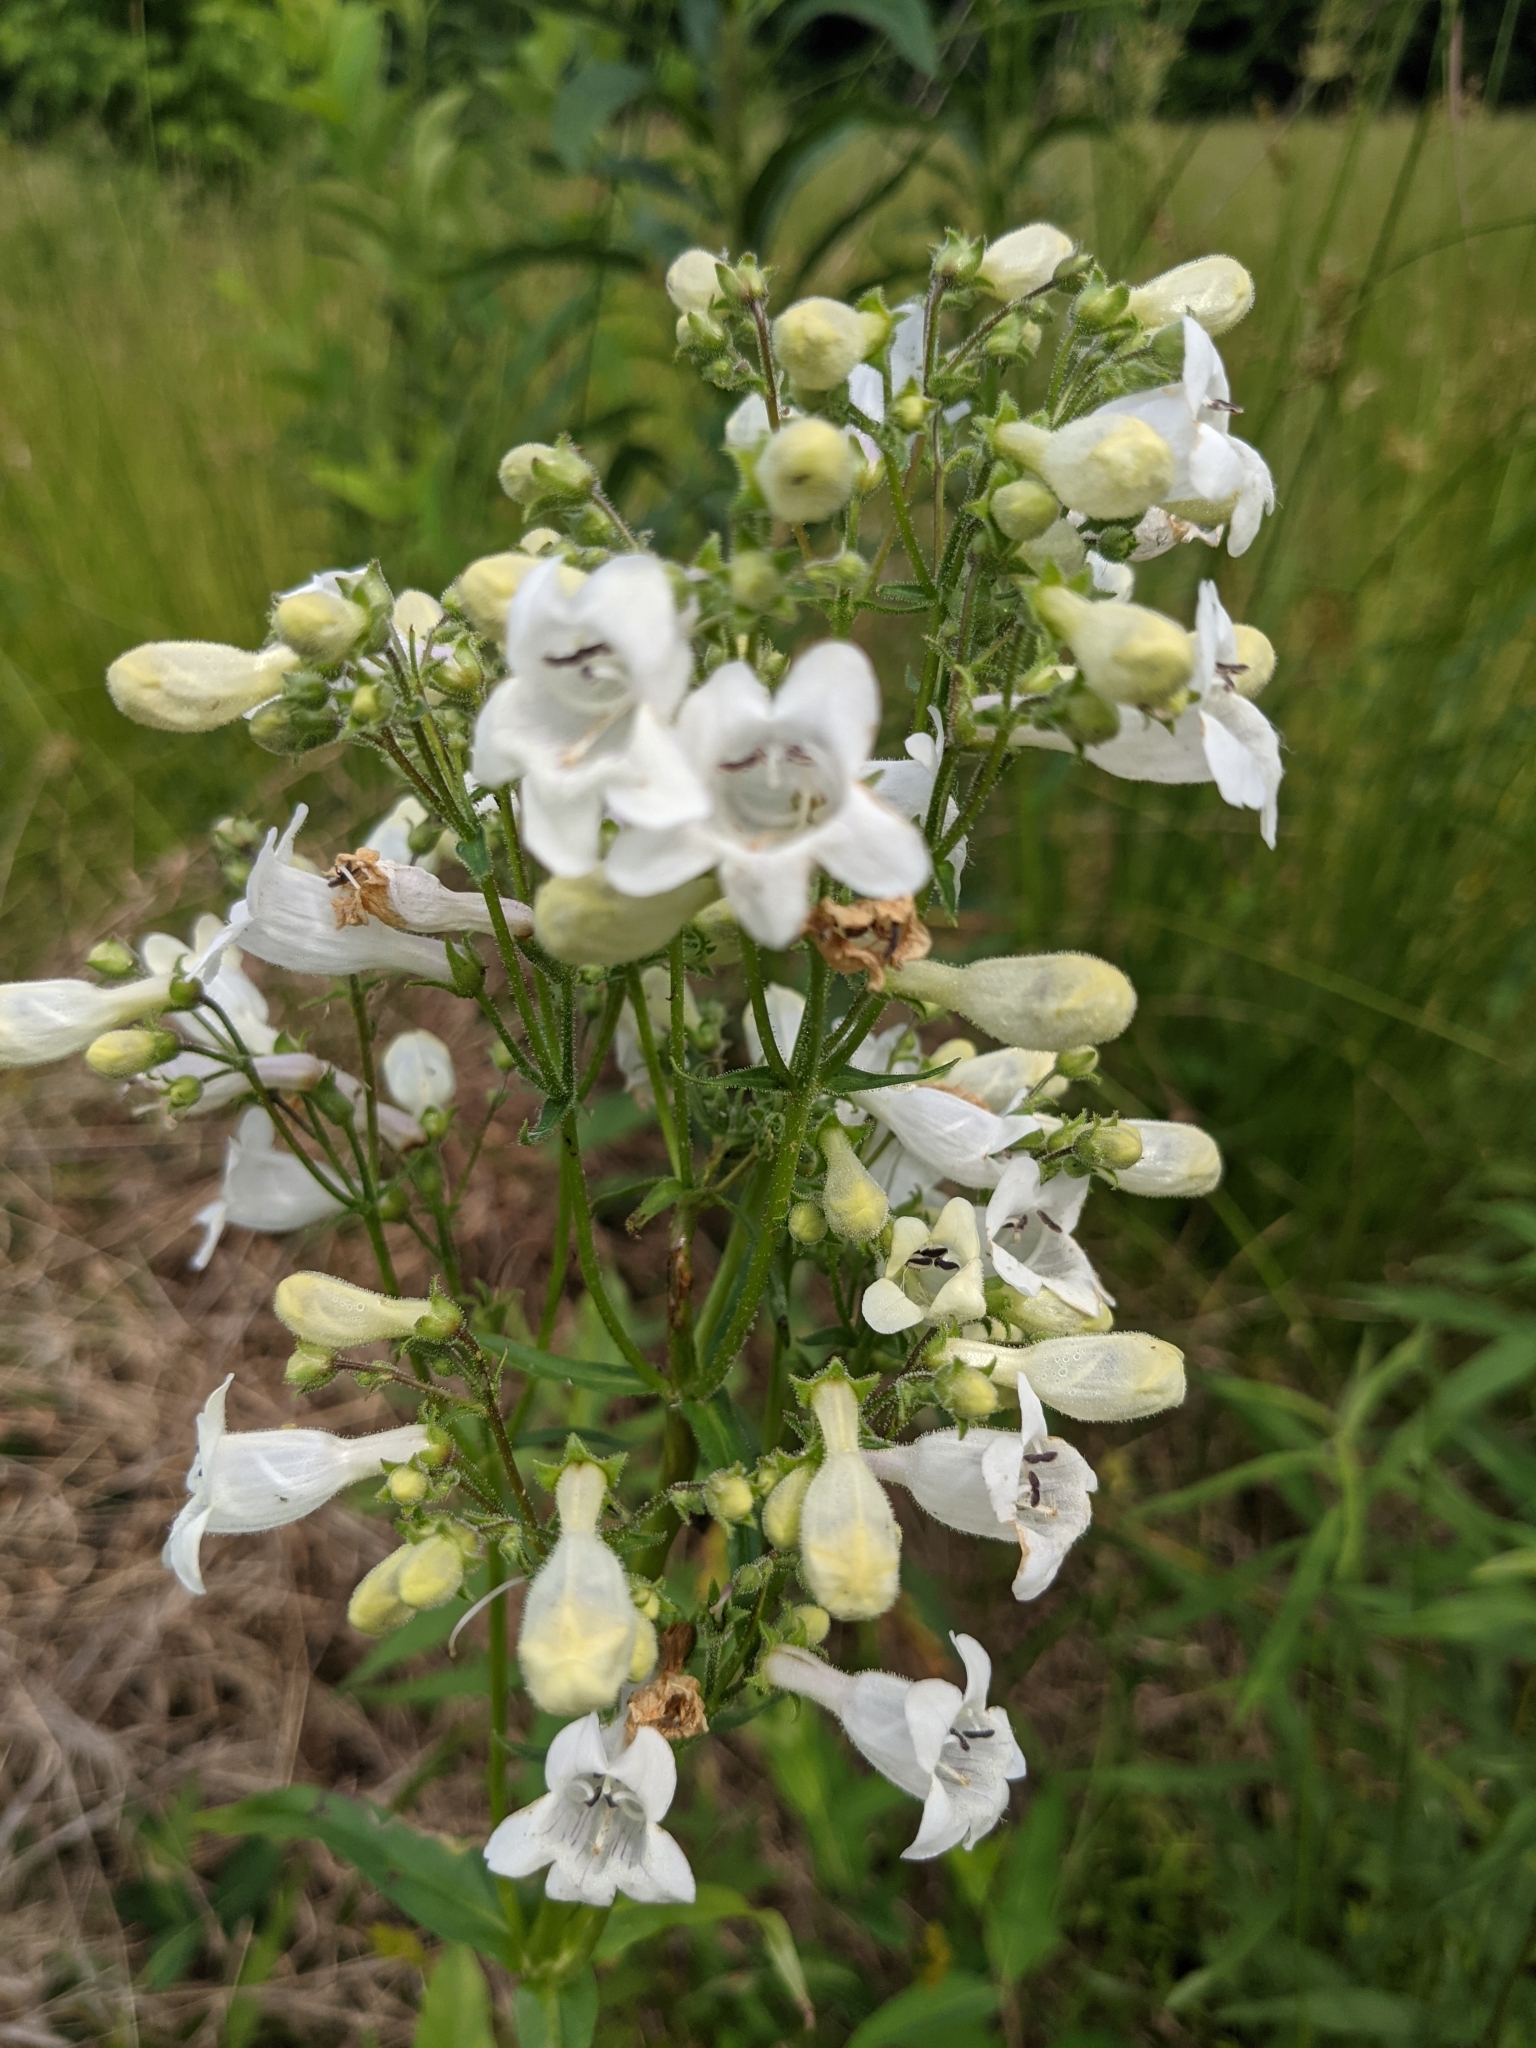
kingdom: Plantae
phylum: Tracheophyta
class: Magnoliopsida
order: Lamiales
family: Plantaginaceae
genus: Penstemon
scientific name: Penstemon digitalis
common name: Foxglove beardtongue
